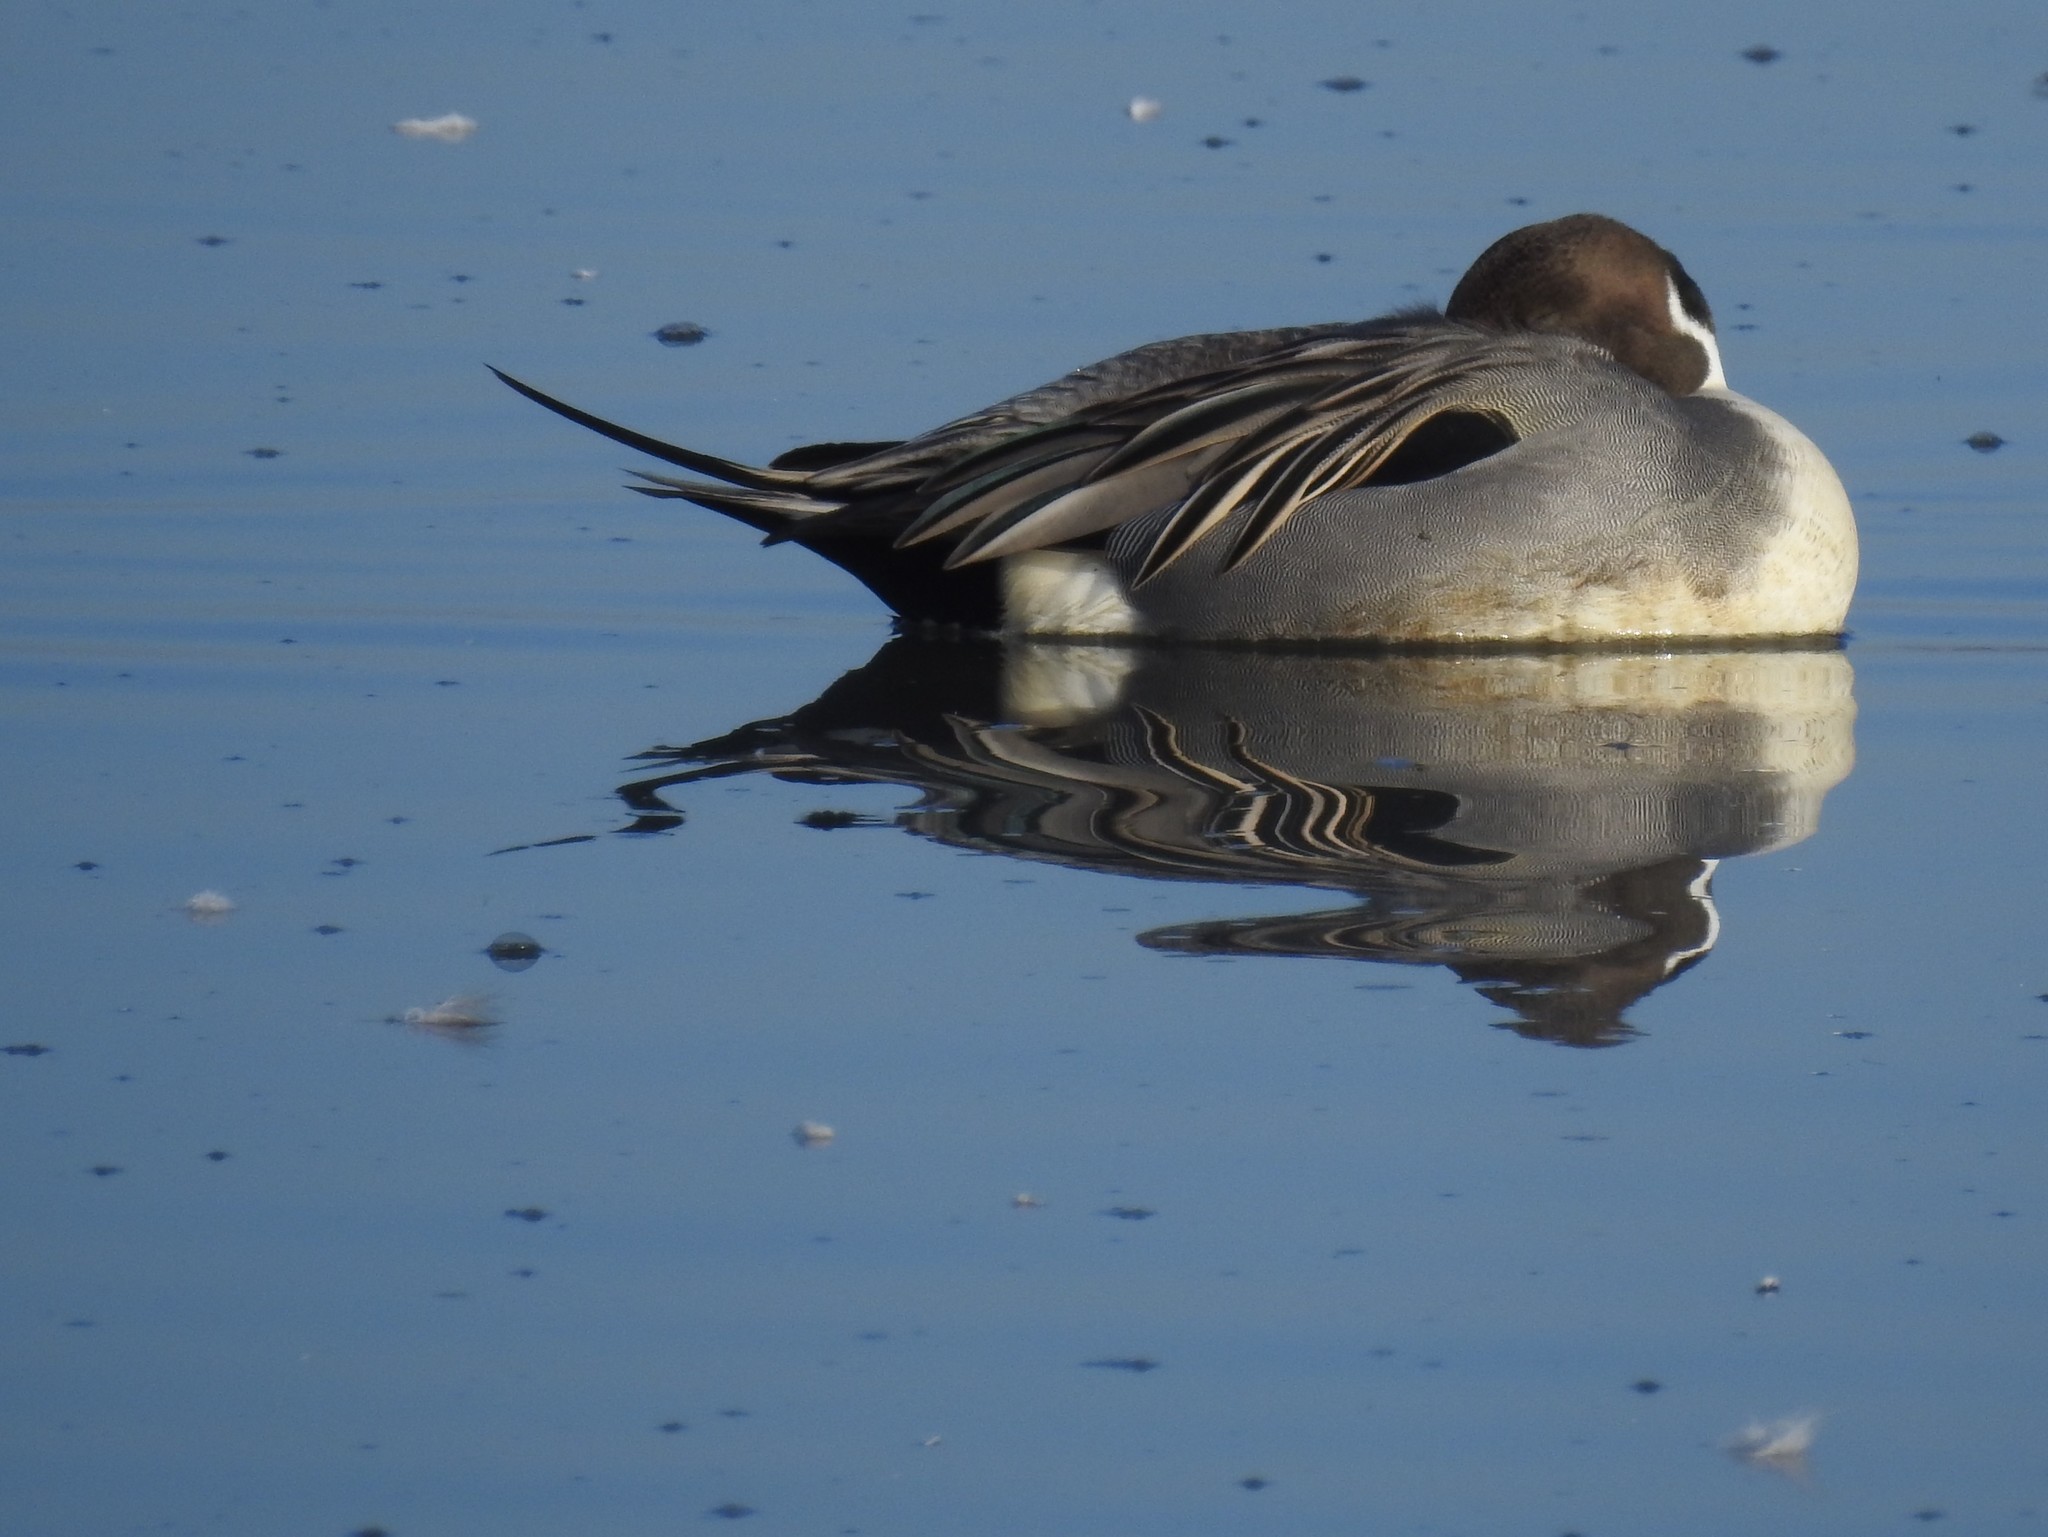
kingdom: Animalia
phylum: Chordata
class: Aves
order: Anseriformes
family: Anatidae
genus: Anas
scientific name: Anas acuta
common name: Northern pintail
